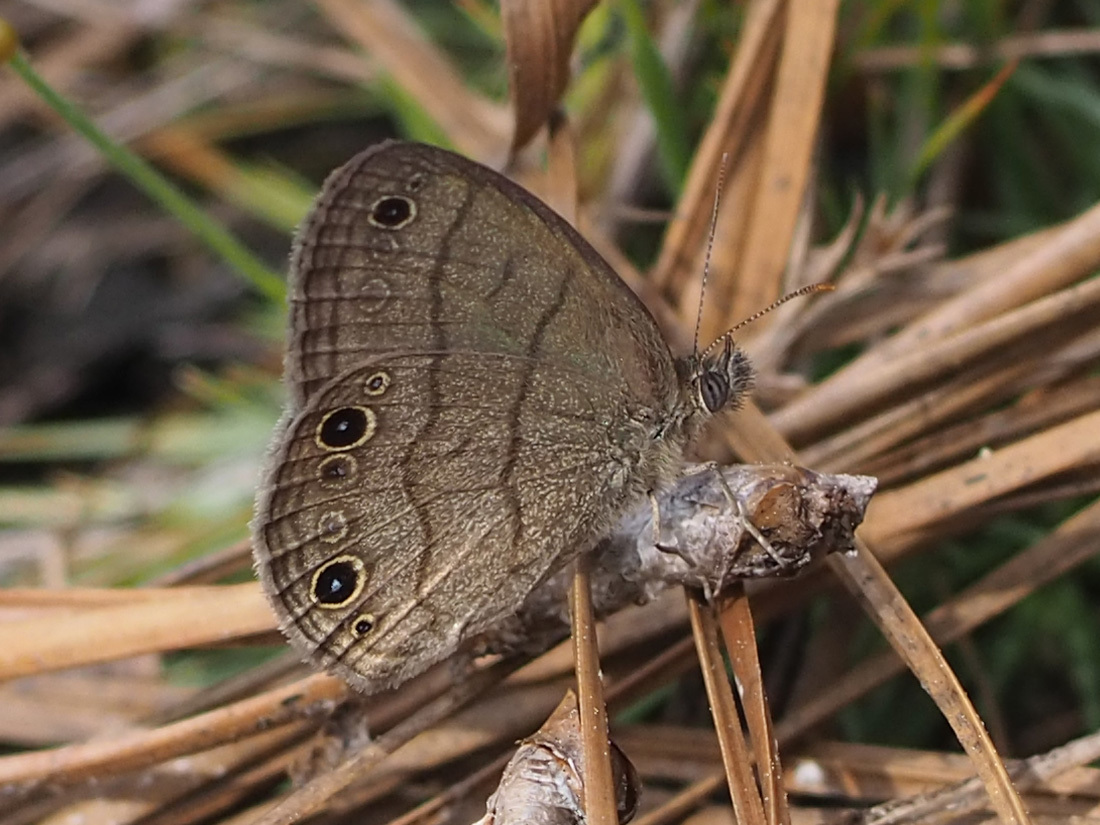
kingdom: Animalia
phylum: Arthropoda
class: Insecta
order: Lepidoptera
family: Nymphalidae
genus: Hermeuptychia
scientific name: Hermeuptychia hermes
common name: Hermes satyr
